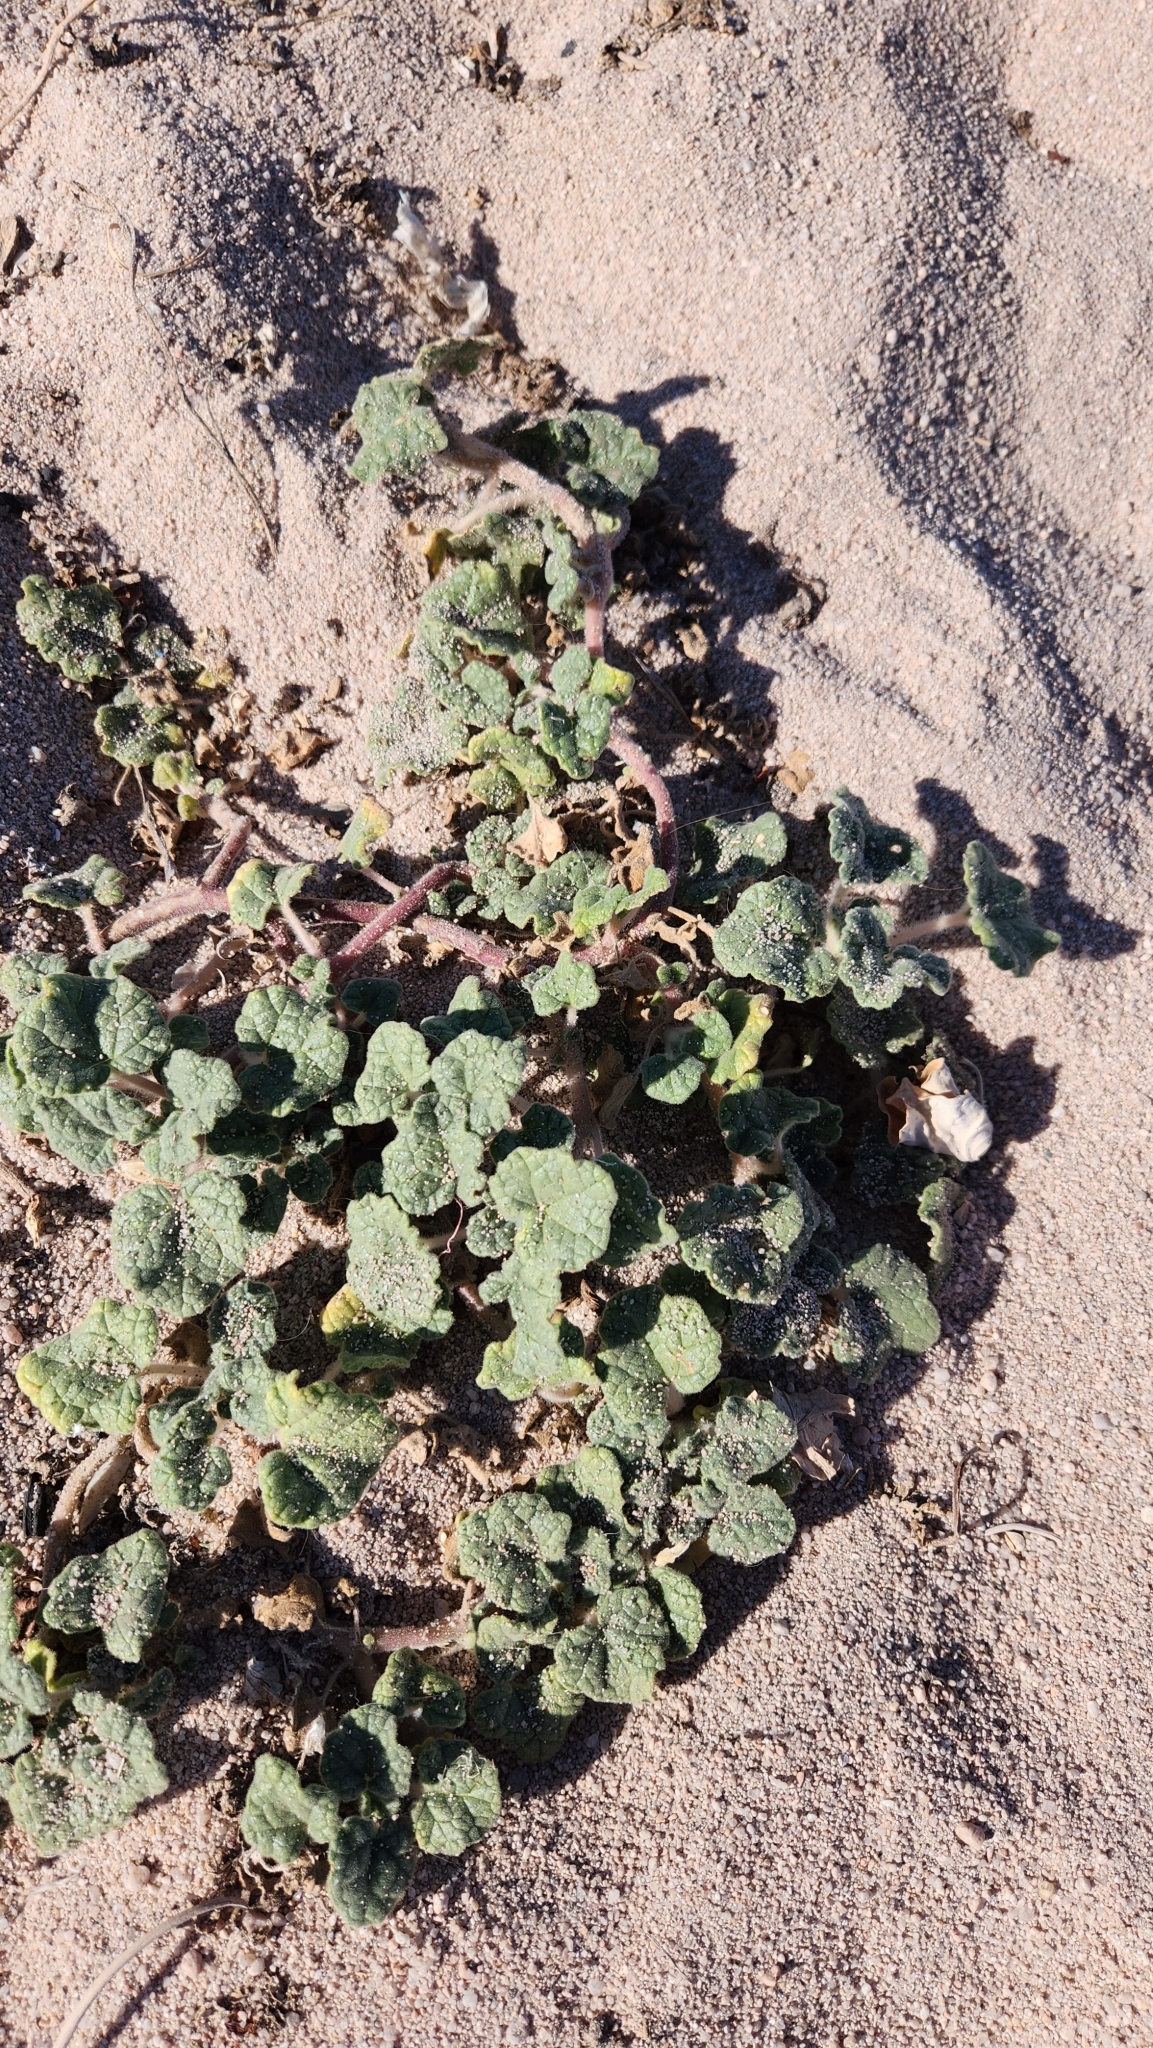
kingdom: Plantae
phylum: Tracheophyta
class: Magnoliopsida
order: Lamiales
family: Martyniaceae
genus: Proboscidea
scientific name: Proboscidea althaeifolia
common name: Desert unicorn-plant
